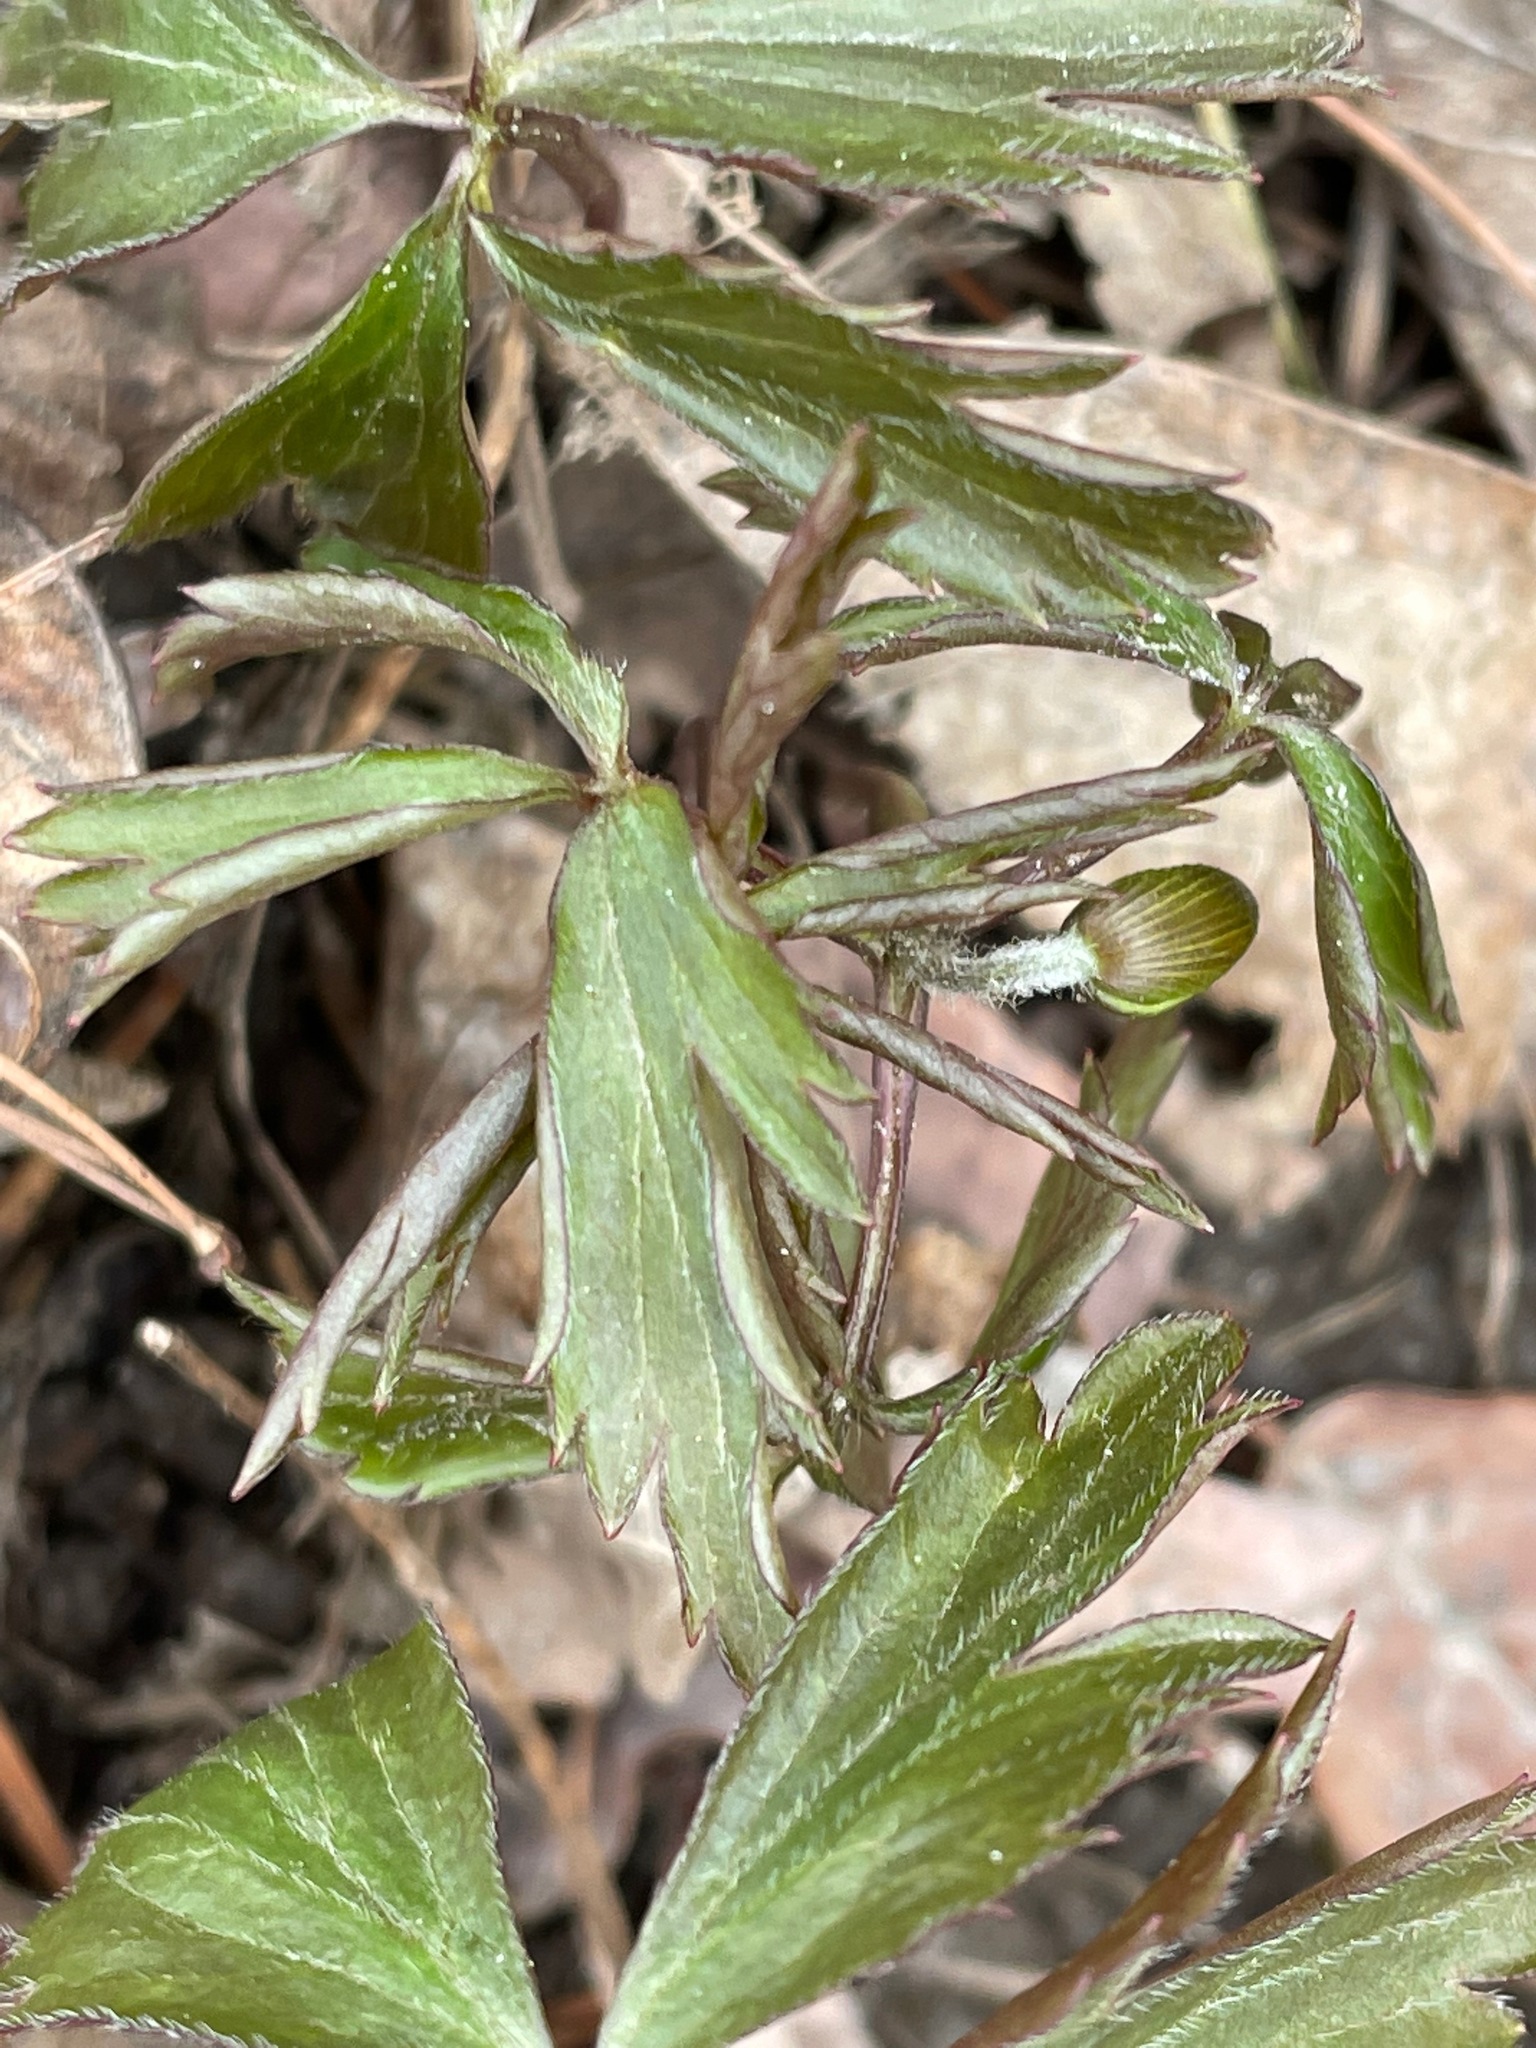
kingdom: Plantae
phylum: Tracheophyta
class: Magnoliopsida
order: Ranunculales
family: Ranunculaceae
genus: Anemone
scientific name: Anemone quinquefolia
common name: Wood anemone
